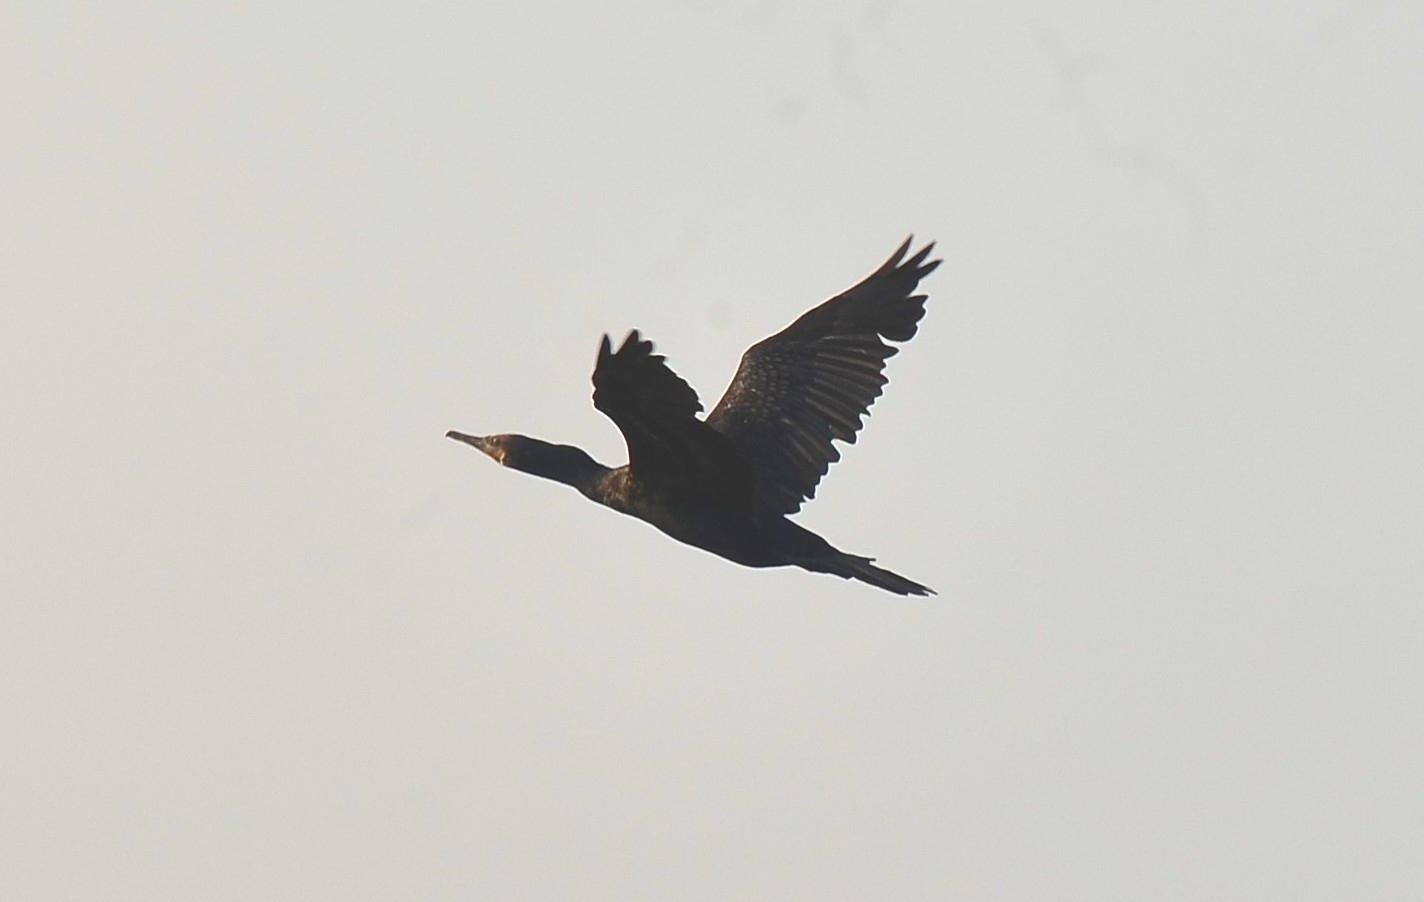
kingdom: Animalia
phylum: Chordata
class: Aves
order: Suliformes
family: Phalacrocoracidae
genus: Phalacrocorax
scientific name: Phalacrocorax fuscicollis
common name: Indian cormorant
